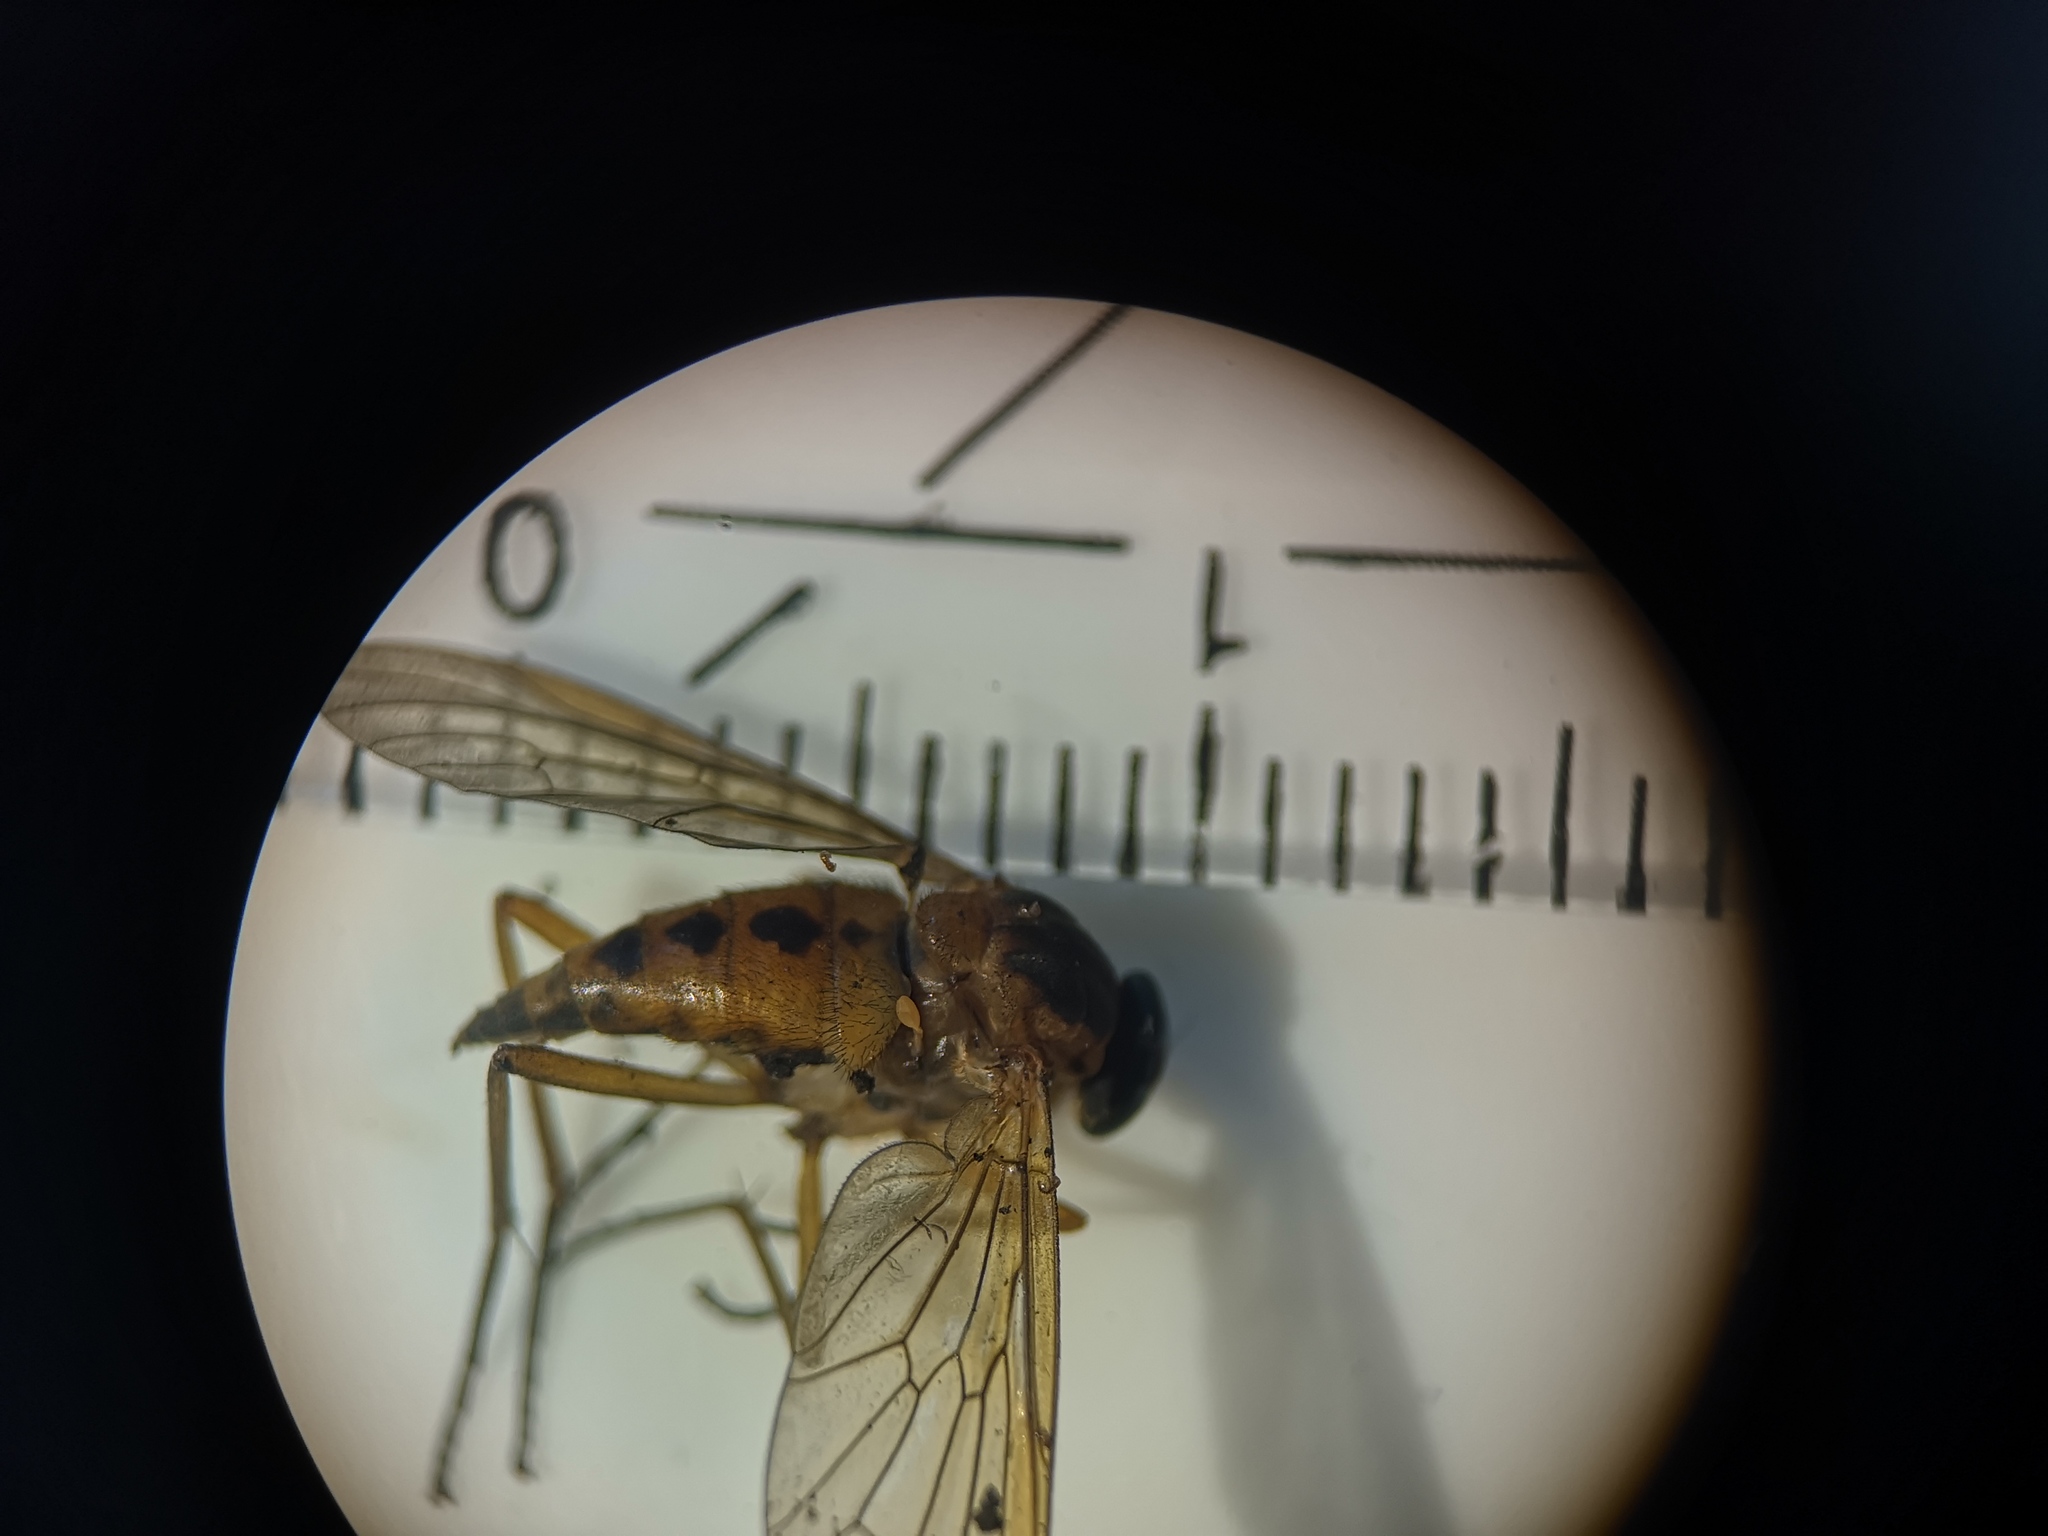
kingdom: Animalia
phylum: Arthropoda
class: Insecta
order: Diptera
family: Rhagionidae
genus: Rhagio
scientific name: Rhagio tringaria
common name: Marsh snipefly
